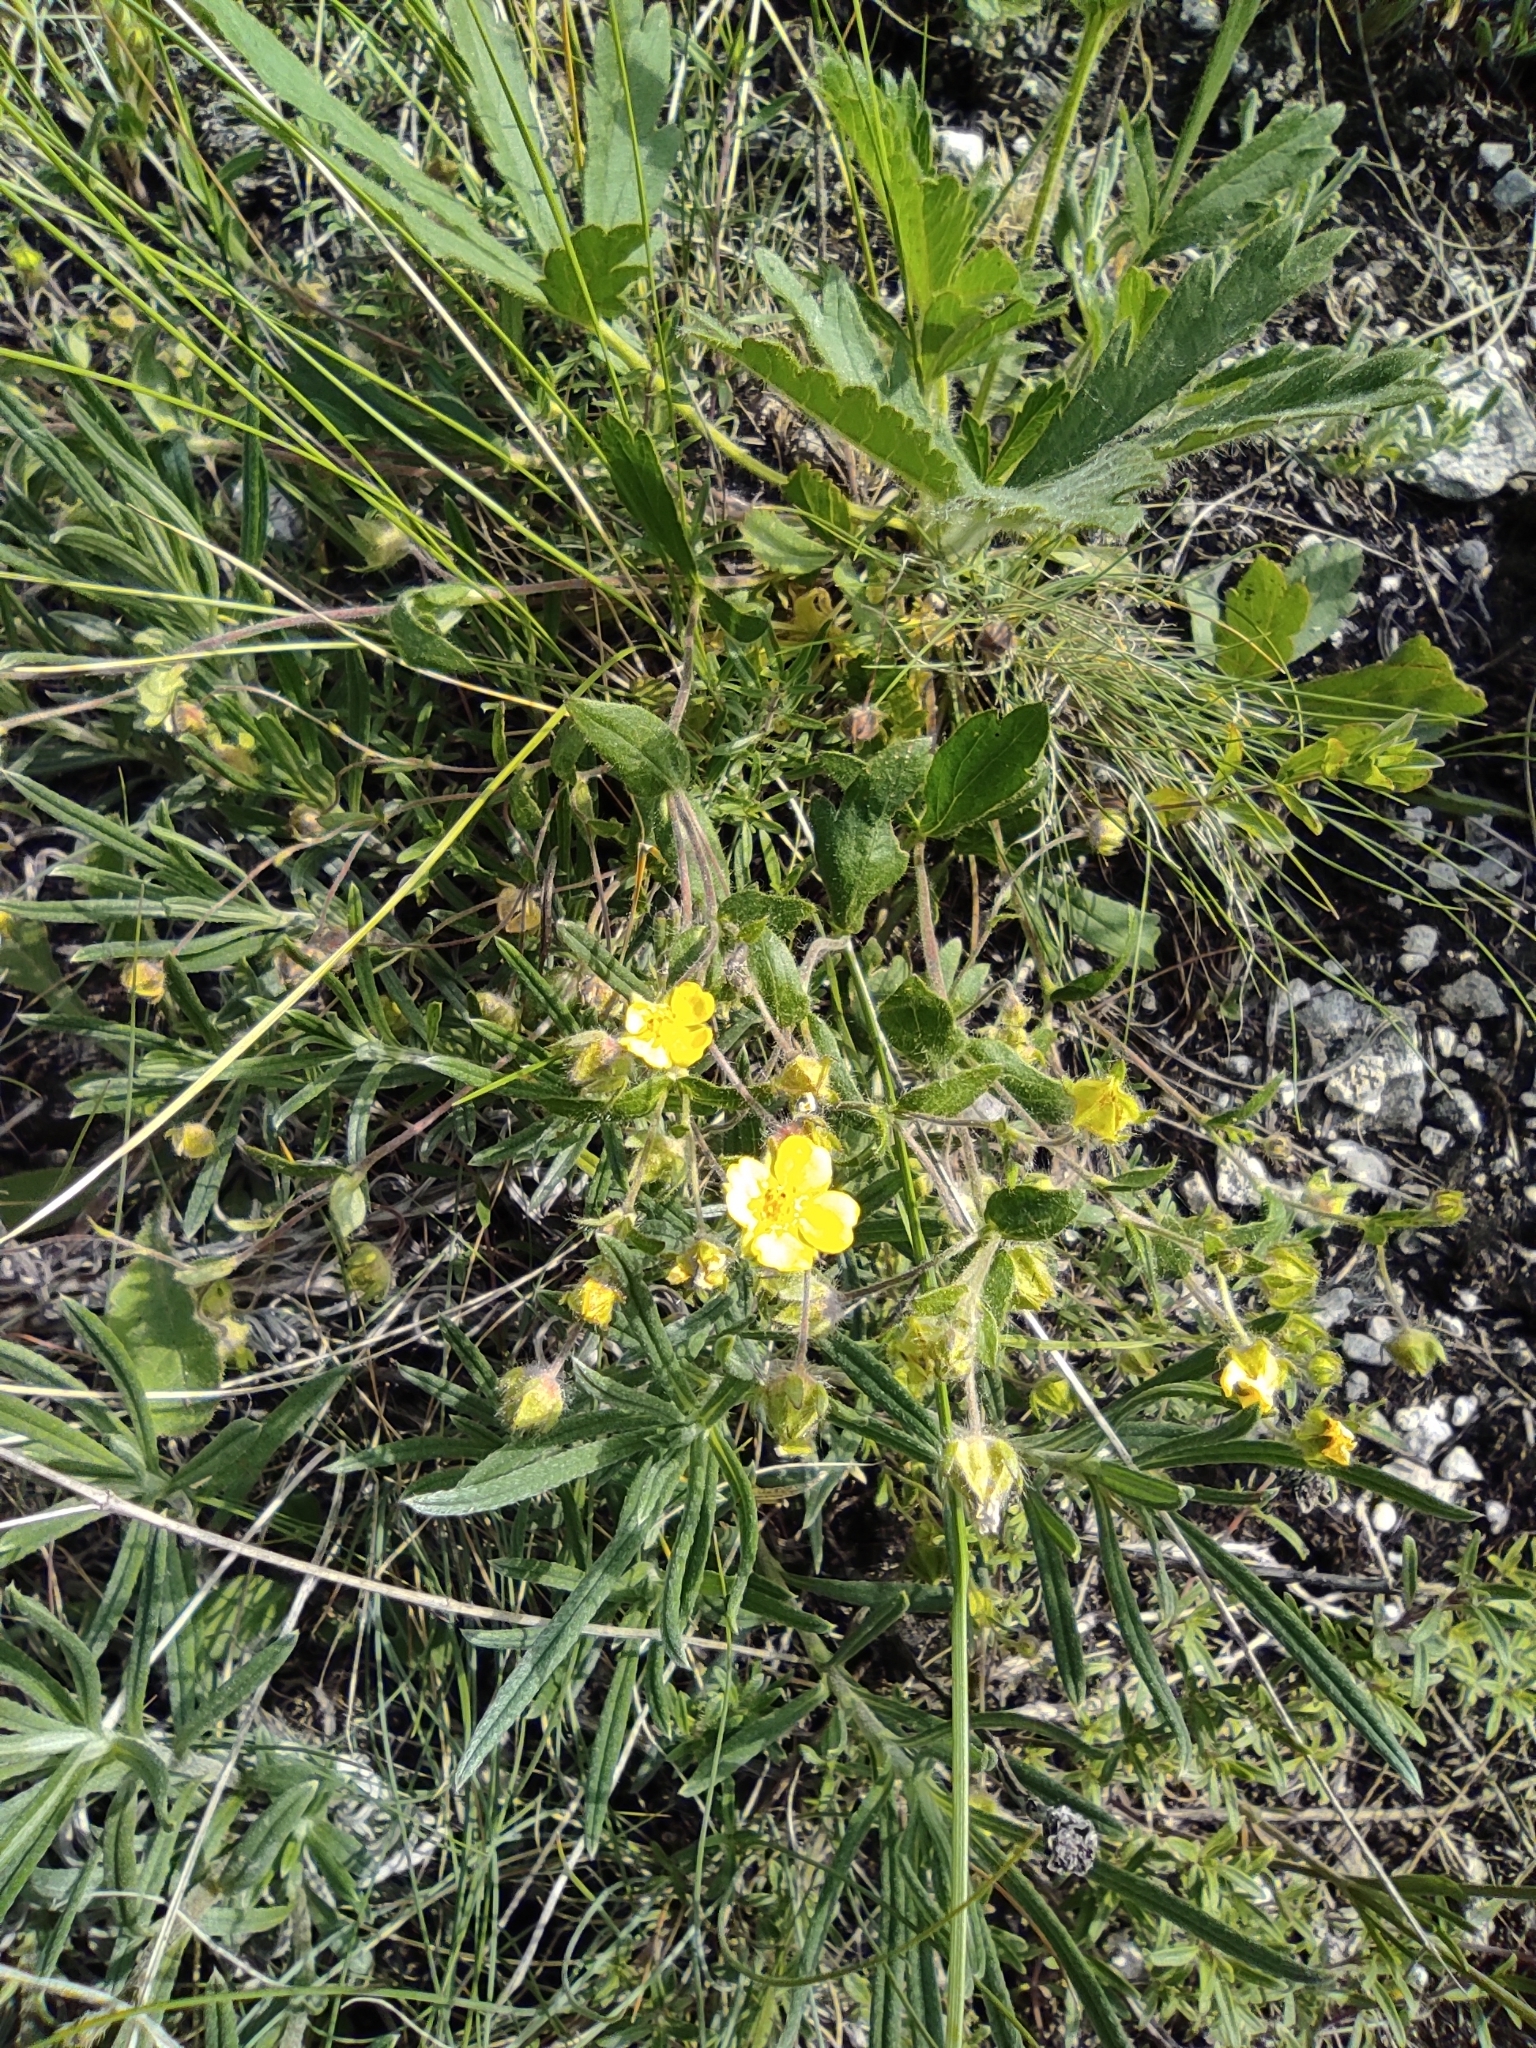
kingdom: Plantae
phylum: Tracheophyta
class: Magnoliopsida
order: Rosales
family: Rosaceae
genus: Potentilla
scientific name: Potentilla humifusa
